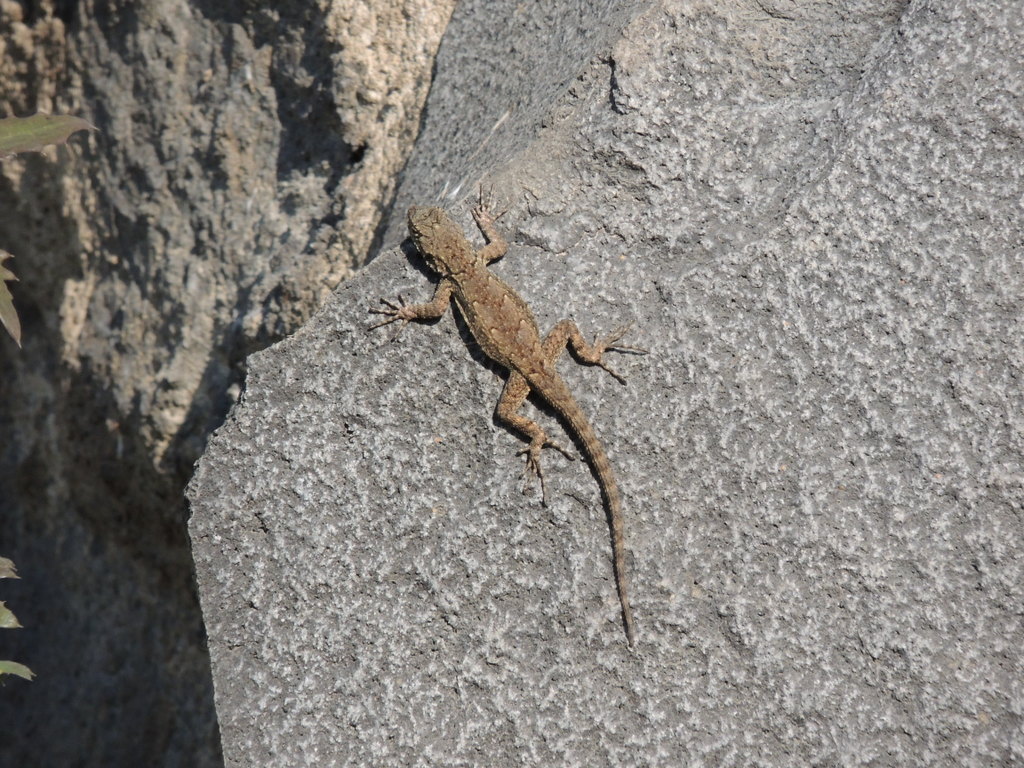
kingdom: Animalia
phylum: Chordata
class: Squamata
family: Phrynosomatidae
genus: Sceloporus
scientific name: Sceloporus grammicus
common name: Mesquite lizard
